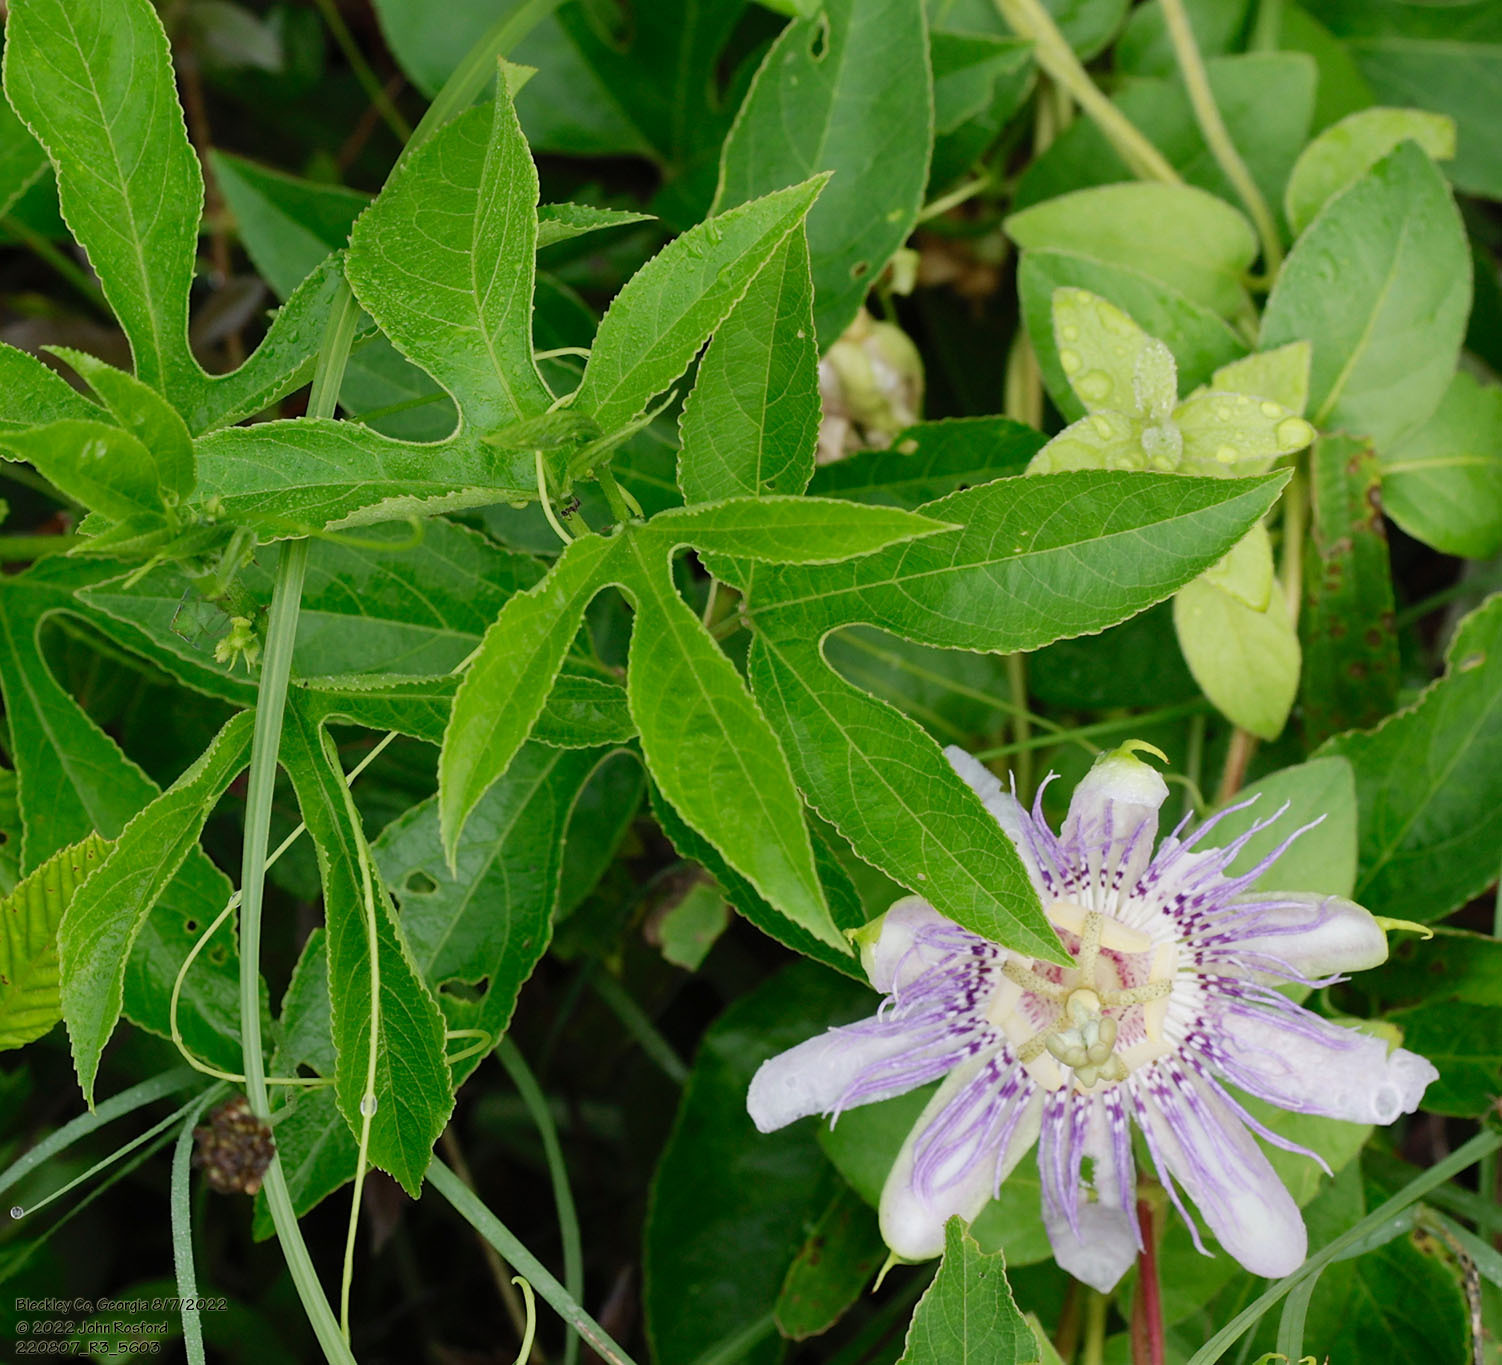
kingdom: Plantae
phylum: Tracheophyta
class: Magnoliopsida
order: Malpighiales
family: Passifloraceae
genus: Passiflora
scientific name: Passiflora incarnata
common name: Apricot-vine
